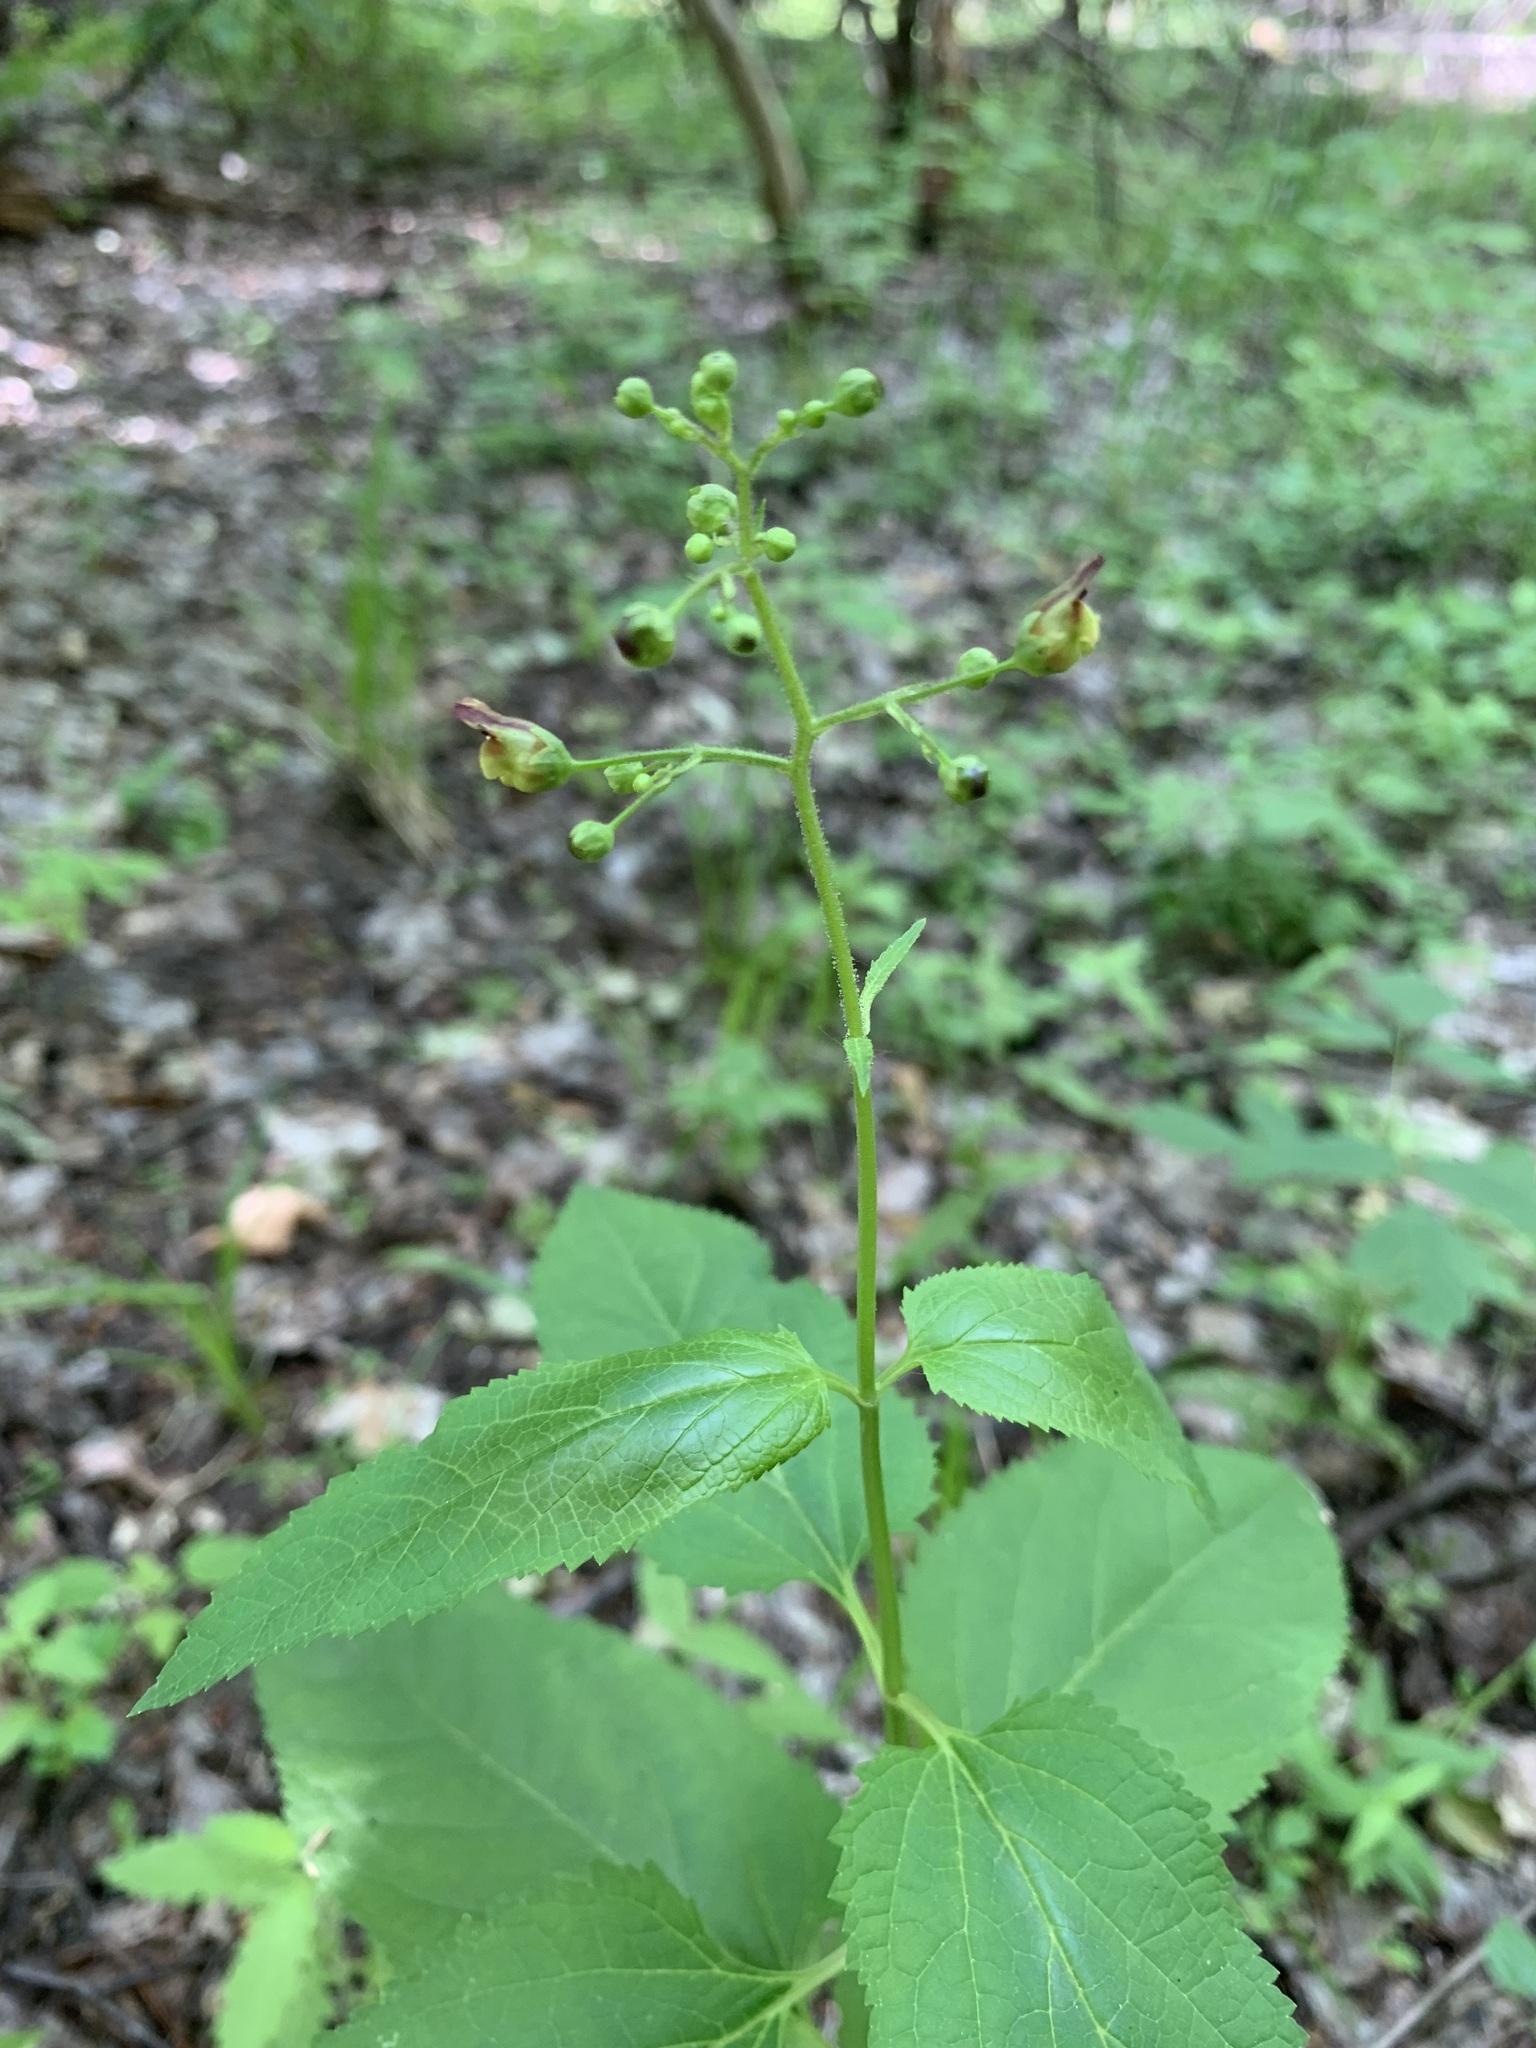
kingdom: Plantae
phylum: Tracheophyta
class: Magnoliopsida
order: Lamiales
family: Scrophulariaceae
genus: Scrophularia
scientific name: Scrophularia nodosa
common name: Common figwort
